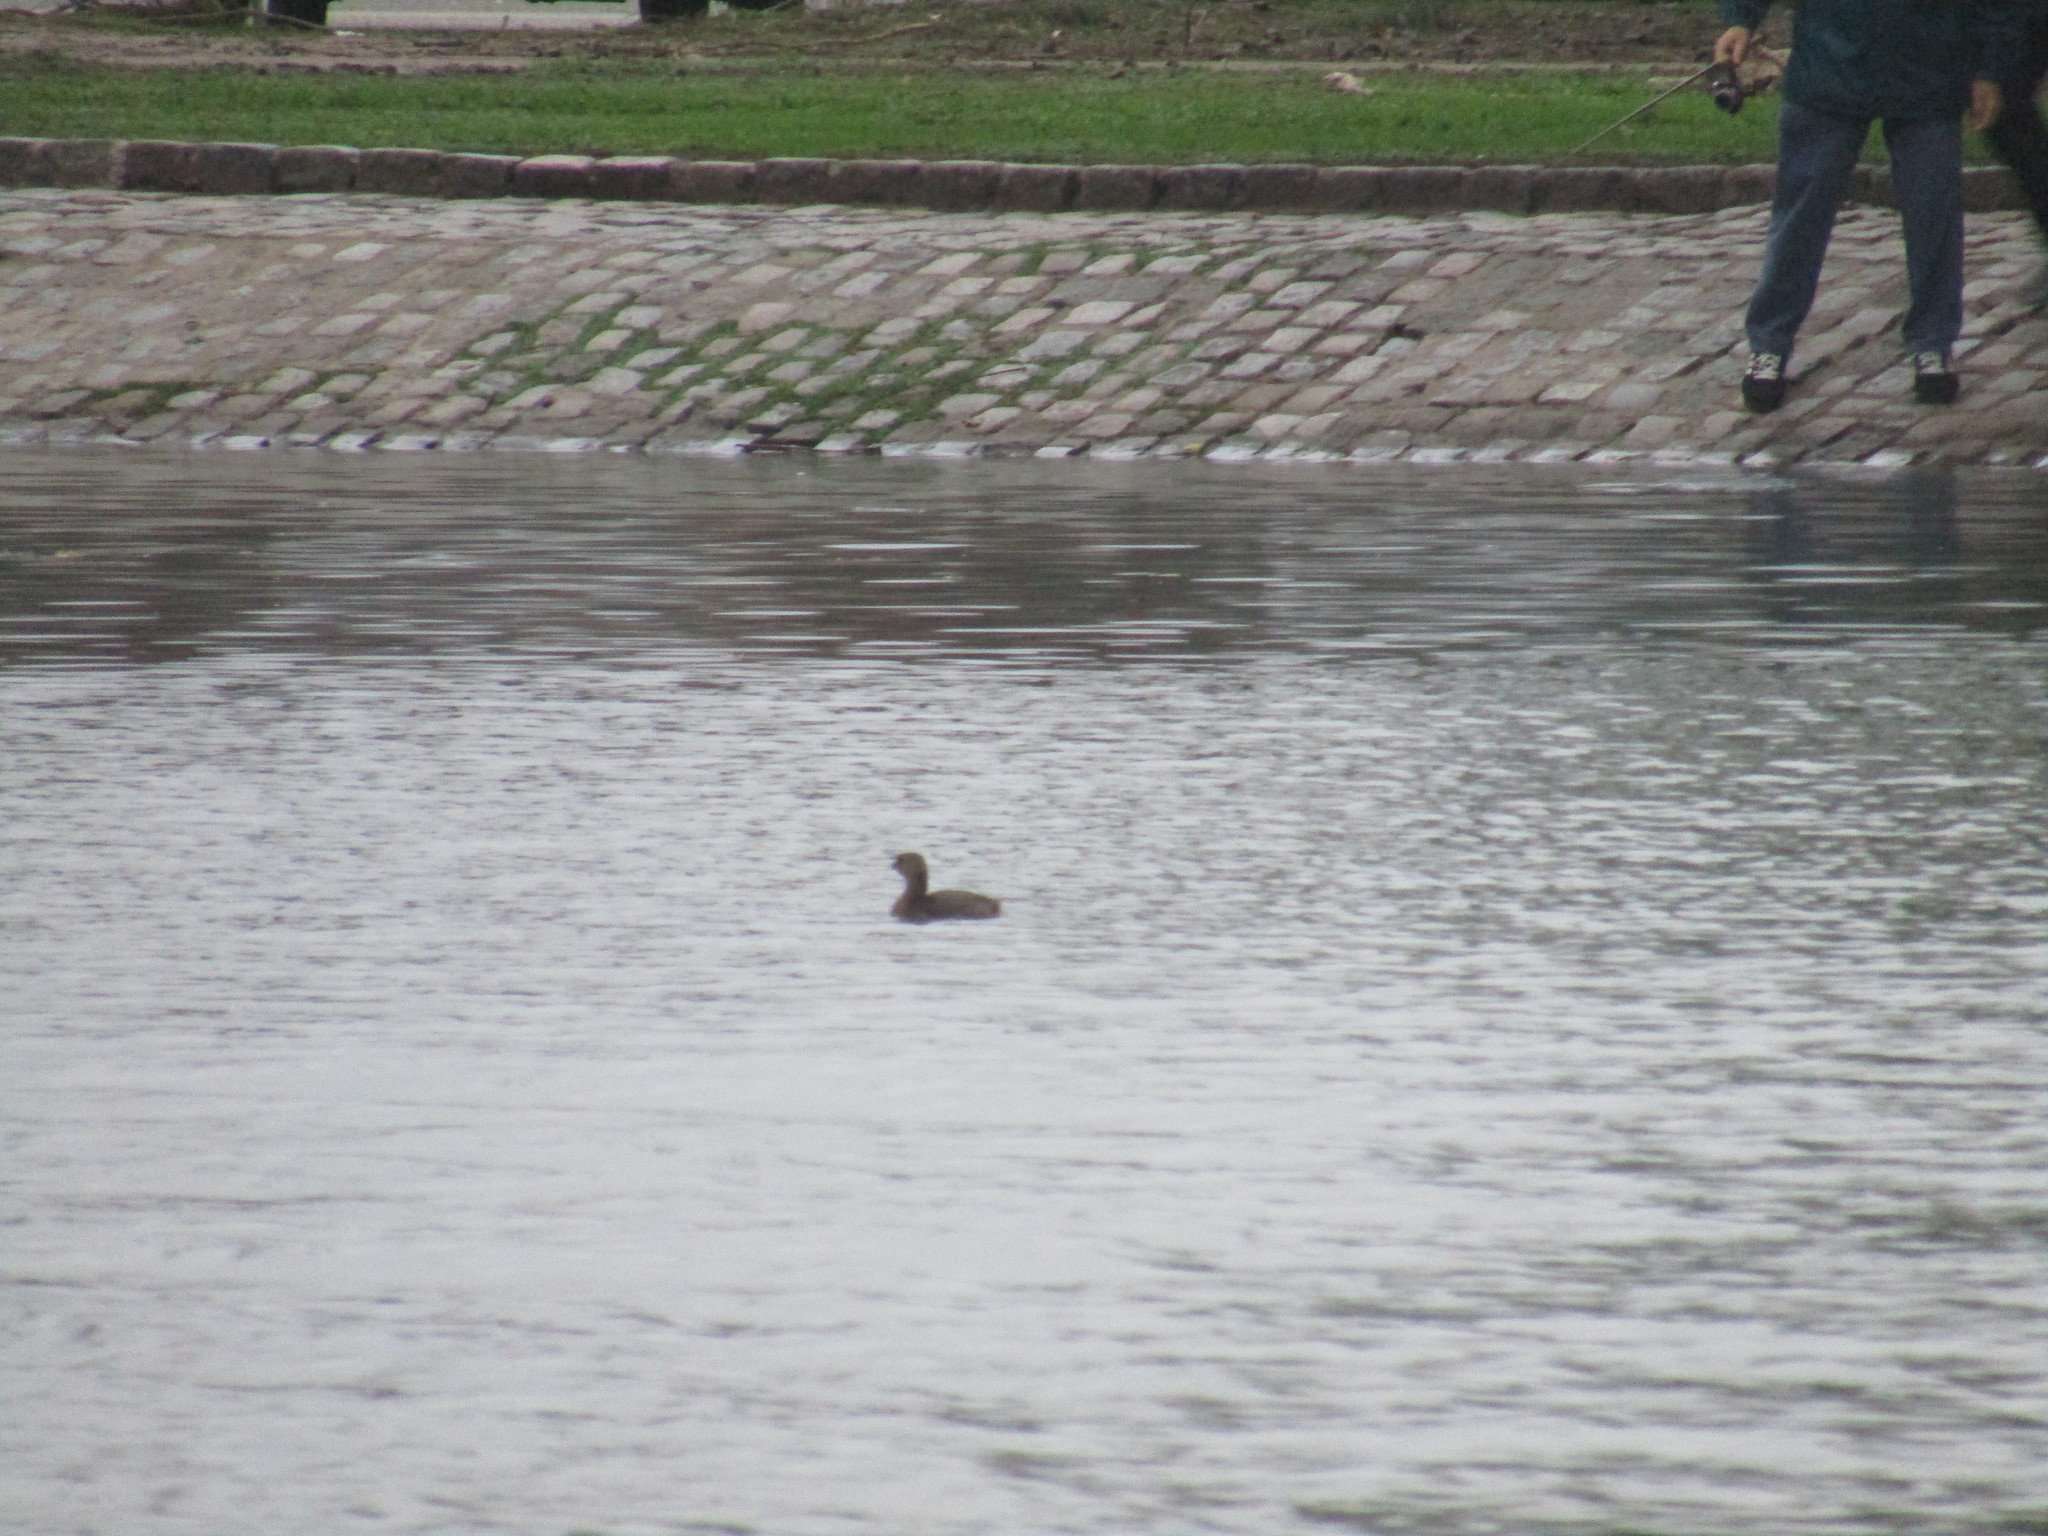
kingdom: Animalia
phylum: Chordata
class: Aves
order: Podicipediformes
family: Podicipedidae
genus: Podilymbus
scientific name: Podilymbus podiceps
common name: Pied-billed grebe
